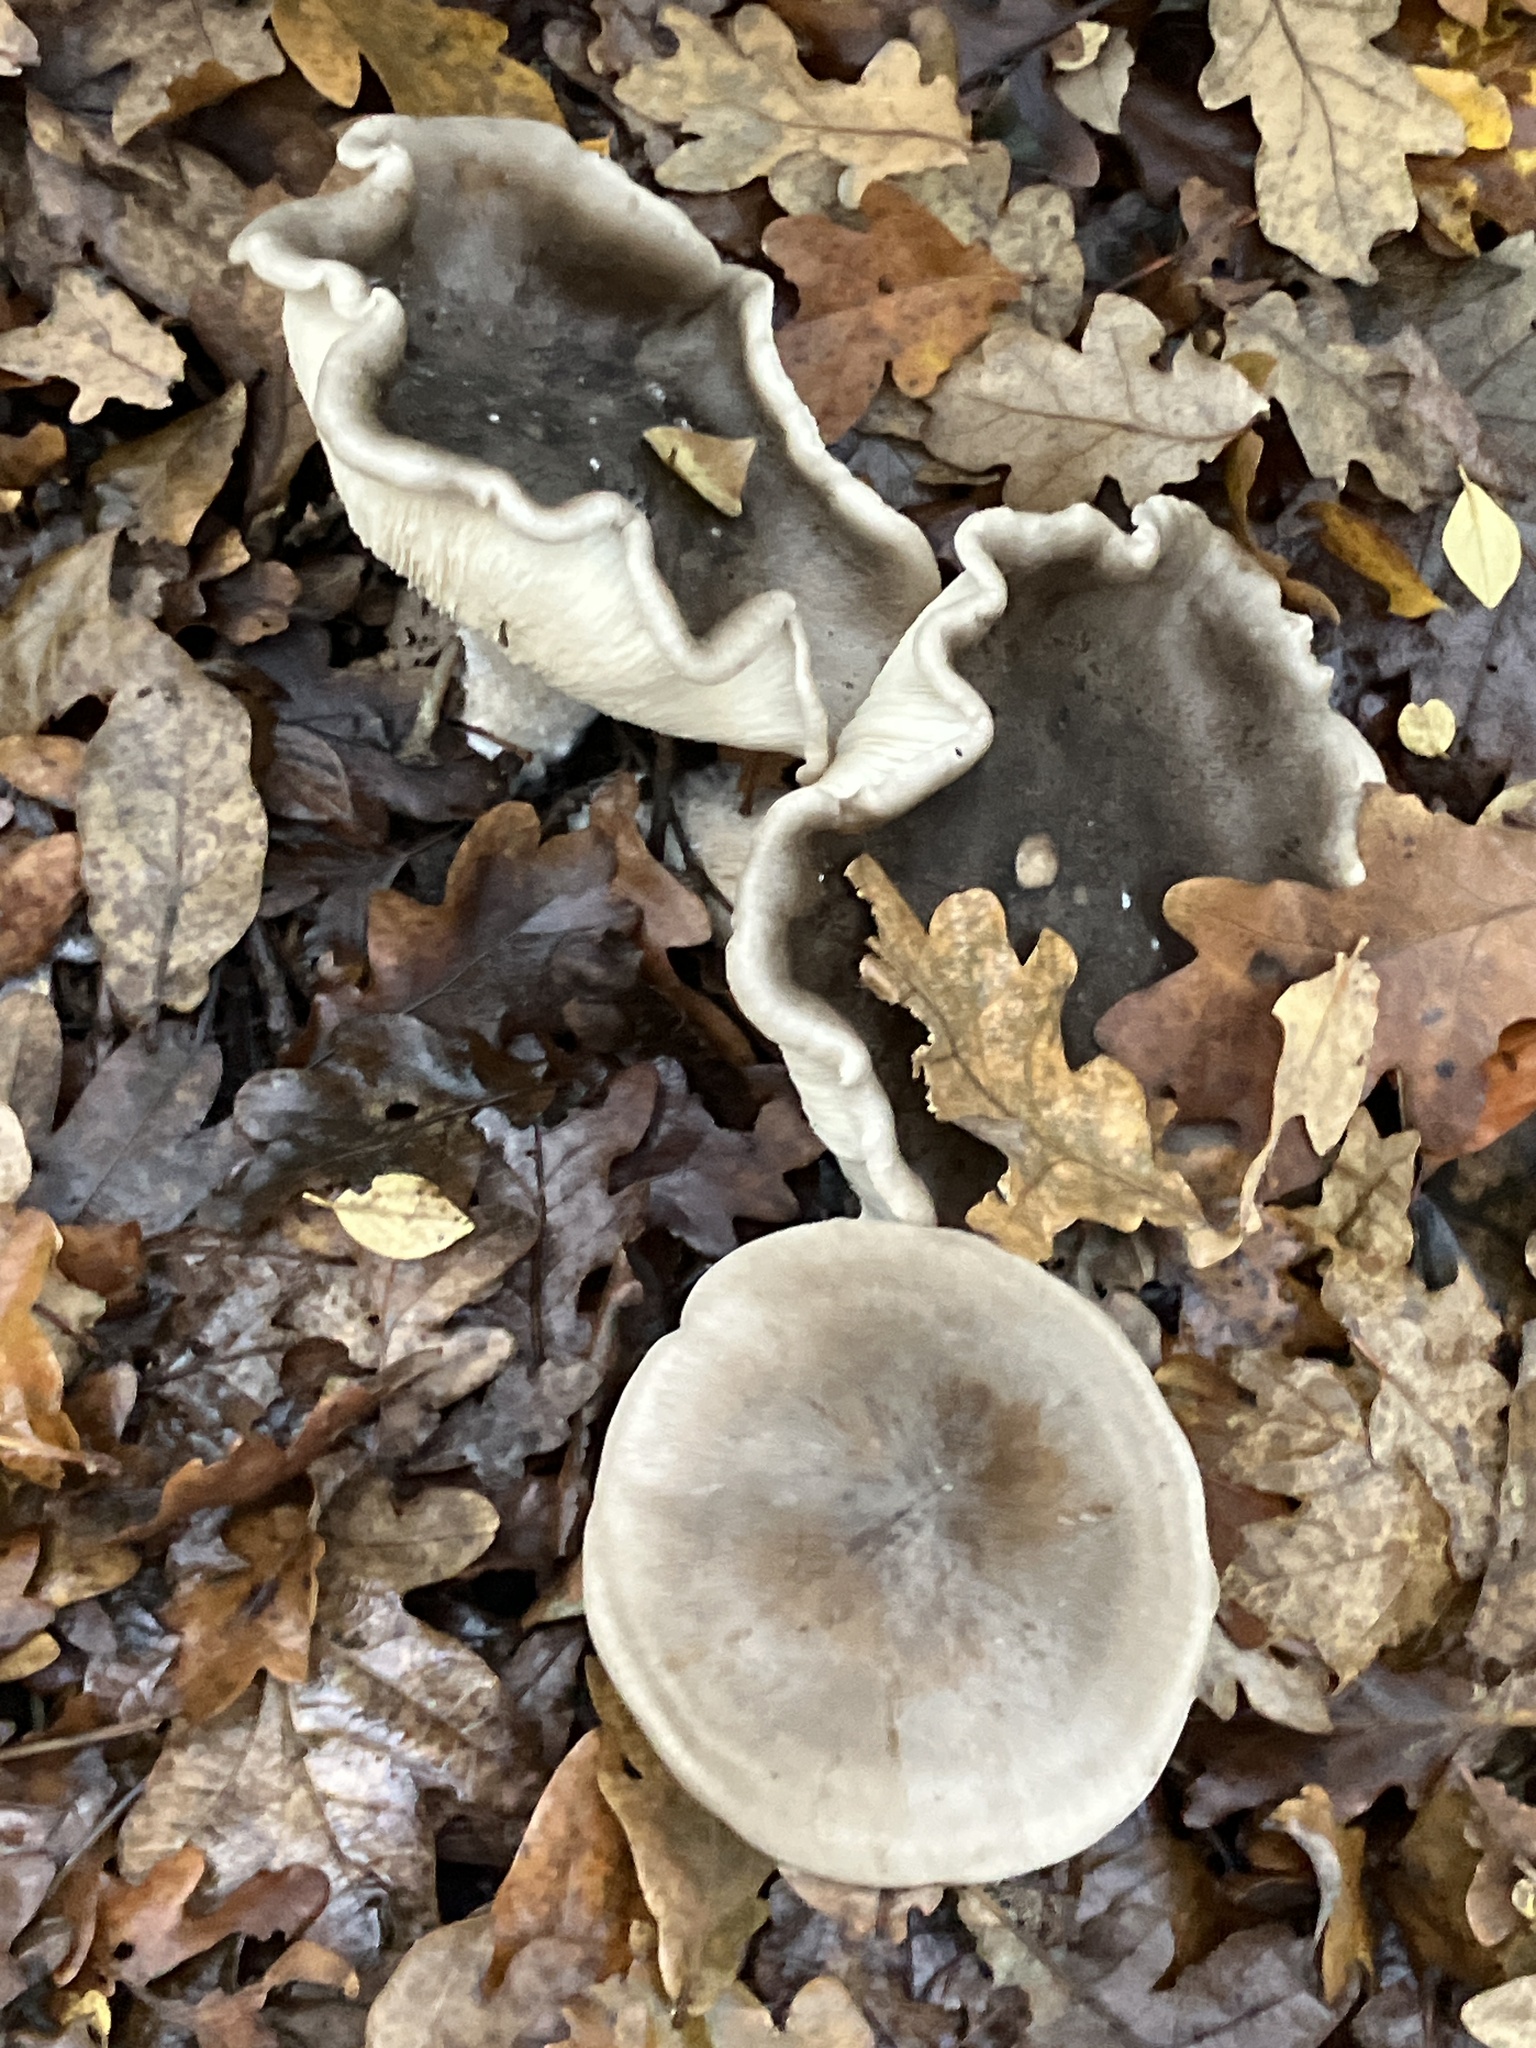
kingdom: Fungi
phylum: Basidiomycota
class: Agaricomycetes
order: Agaricales
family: Tricholomataceae
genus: Clitocybe
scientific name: Clitocybe nebularis
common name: Clouded agaric
